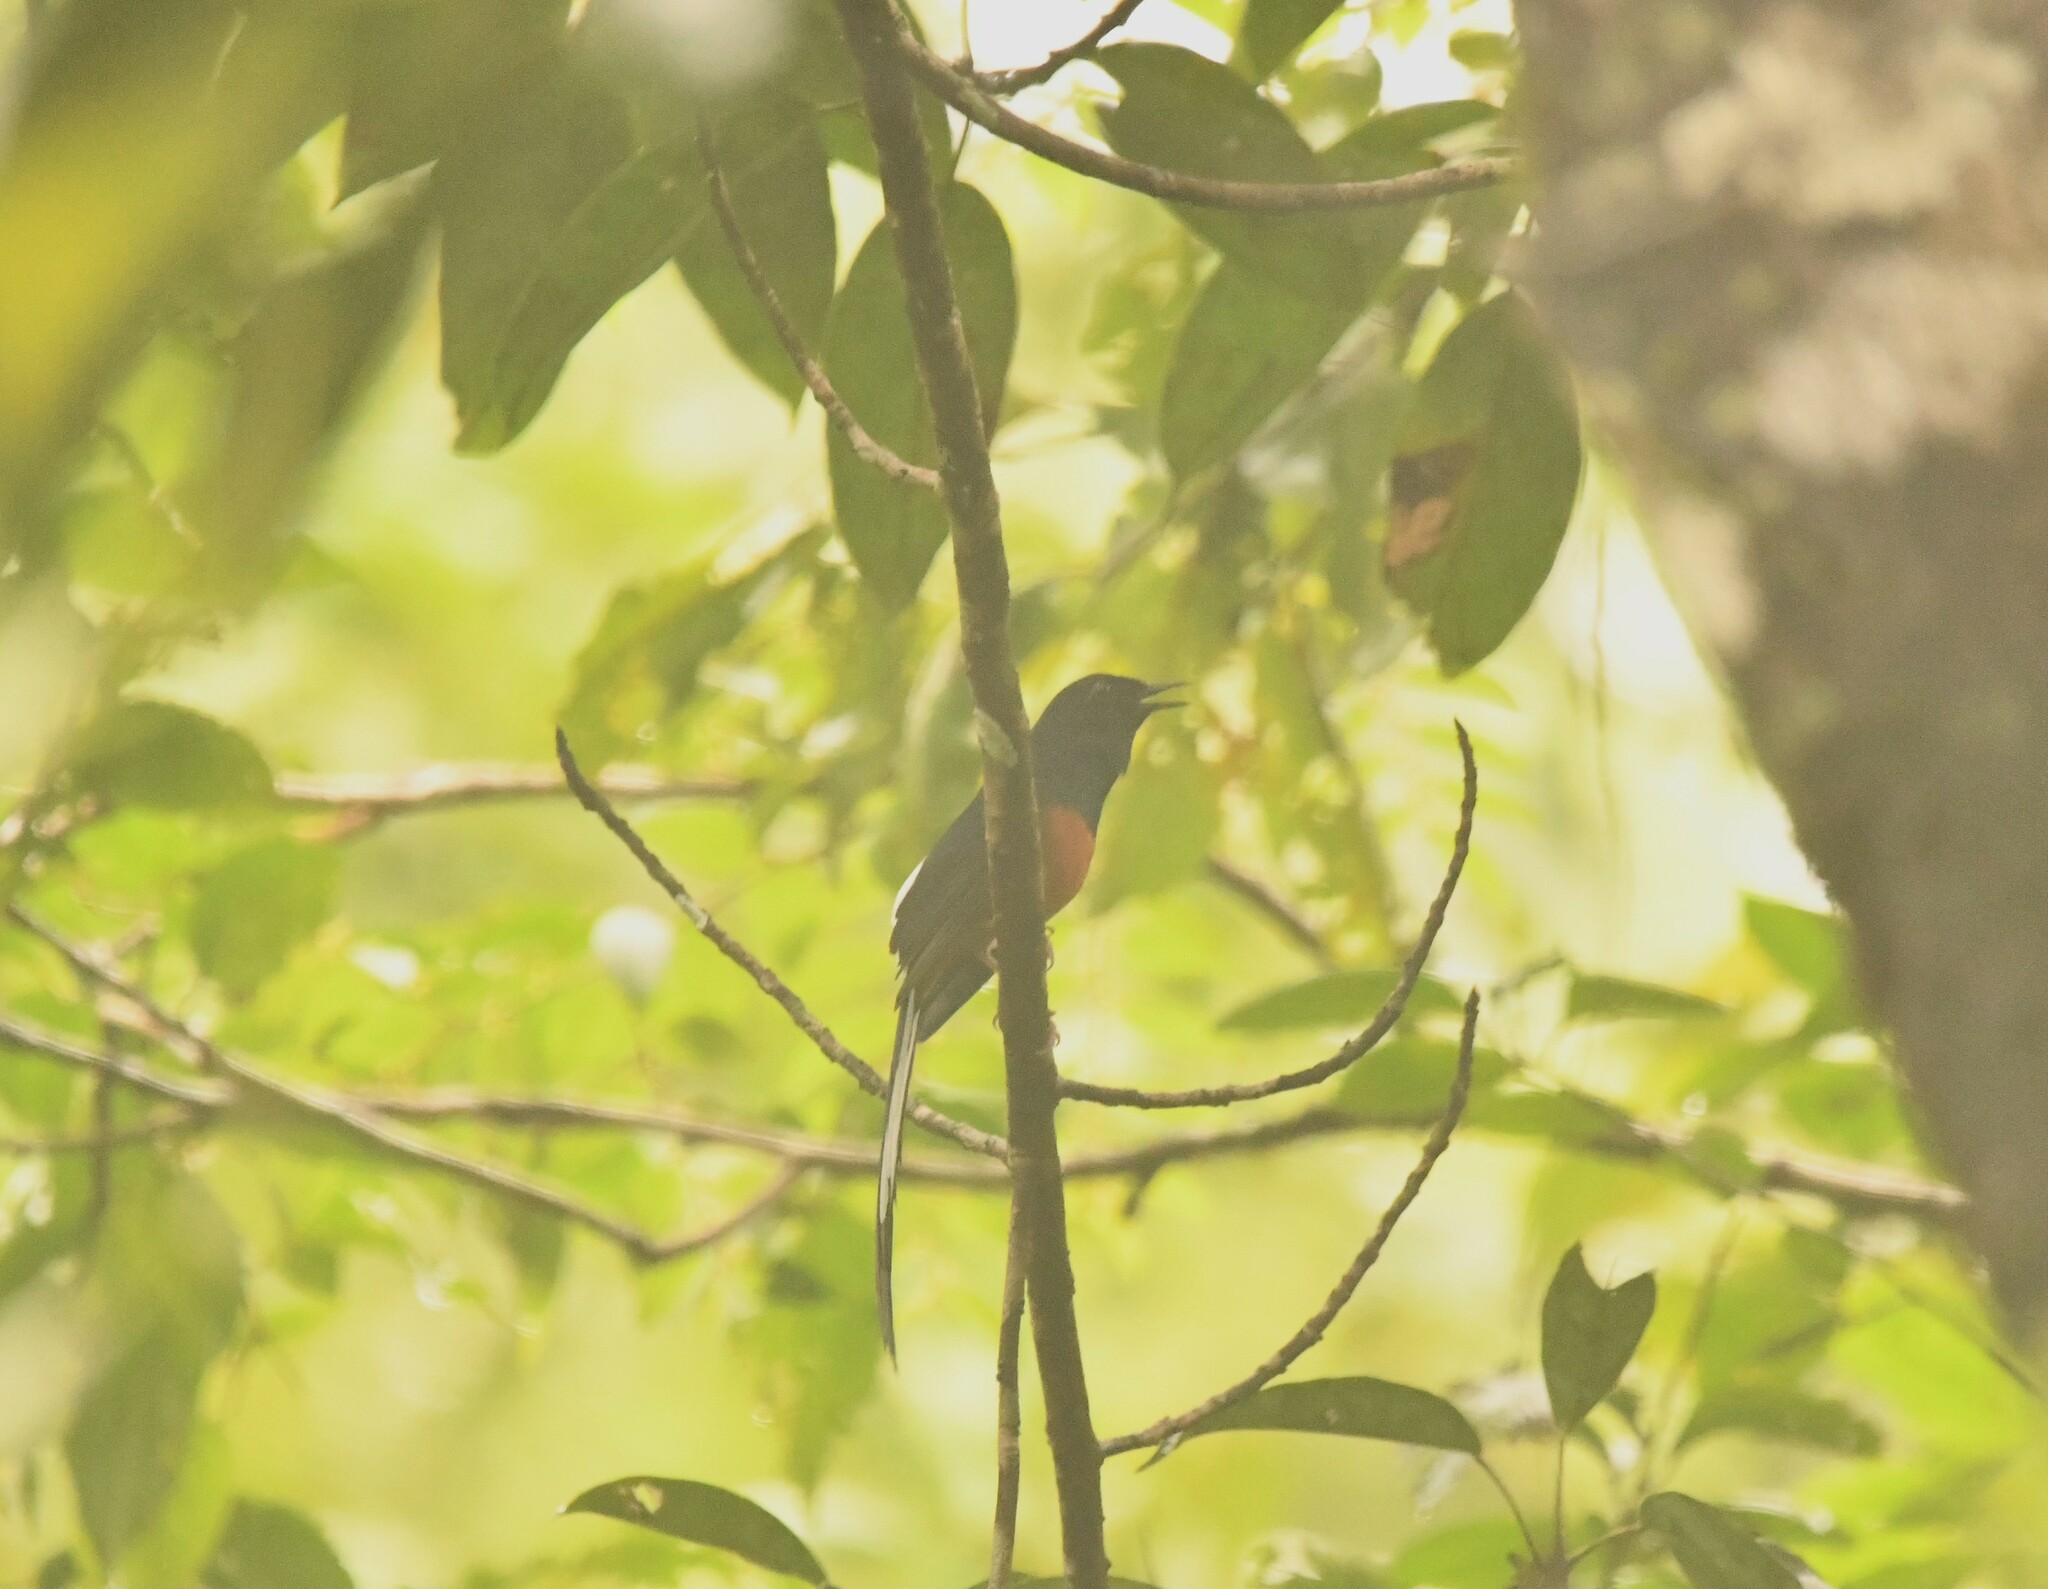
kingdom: Animalia
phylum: Chordata
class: Aves
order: Passeriformes
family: Muscicapidae
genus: Copsychus
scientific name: Copsychus malabaricus
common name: White-rumped shama
